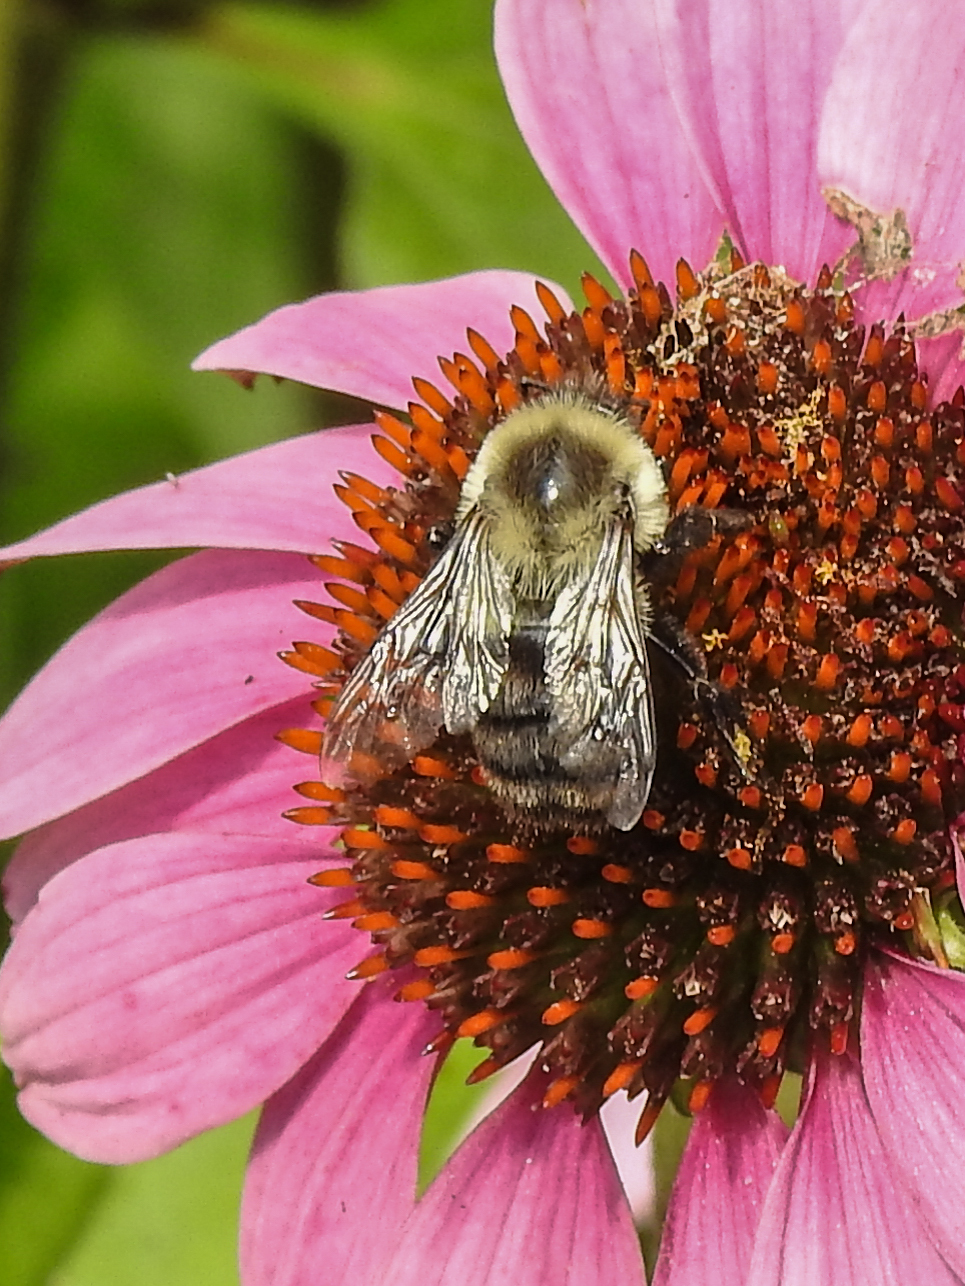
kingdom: Animalia
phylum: Arthropoda
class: Insecta
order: Hymenoptera
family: Apidae
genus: Bombus
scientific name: Bombus impatiens
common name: Common eastern bumble bee
